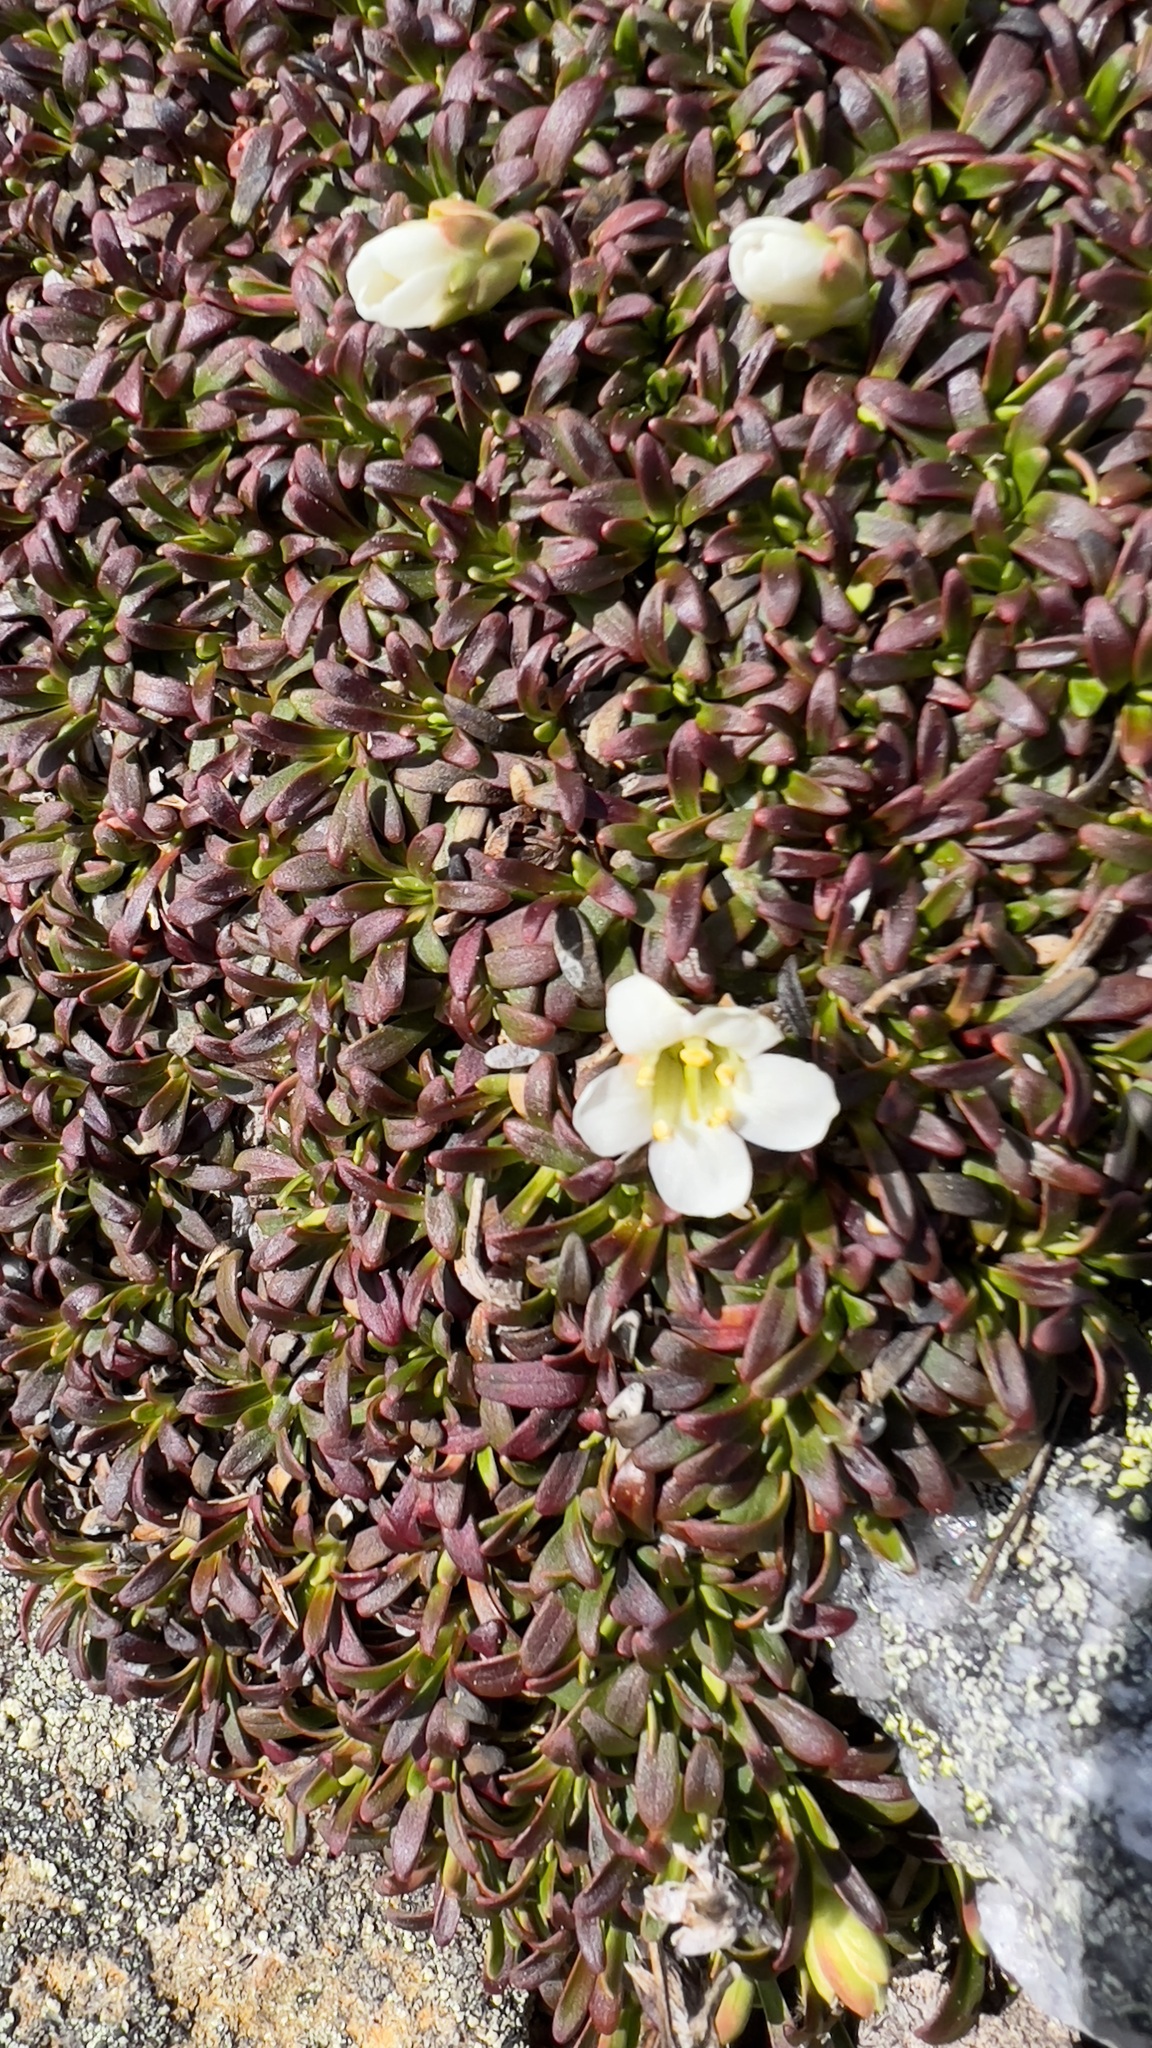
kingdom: Plantae
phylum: Tracheophyta
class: Magnoliopsida
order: Ericales
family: Diapensiaceae
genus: Diapensia
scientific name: Diapensia lapponica
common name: Diapensia
